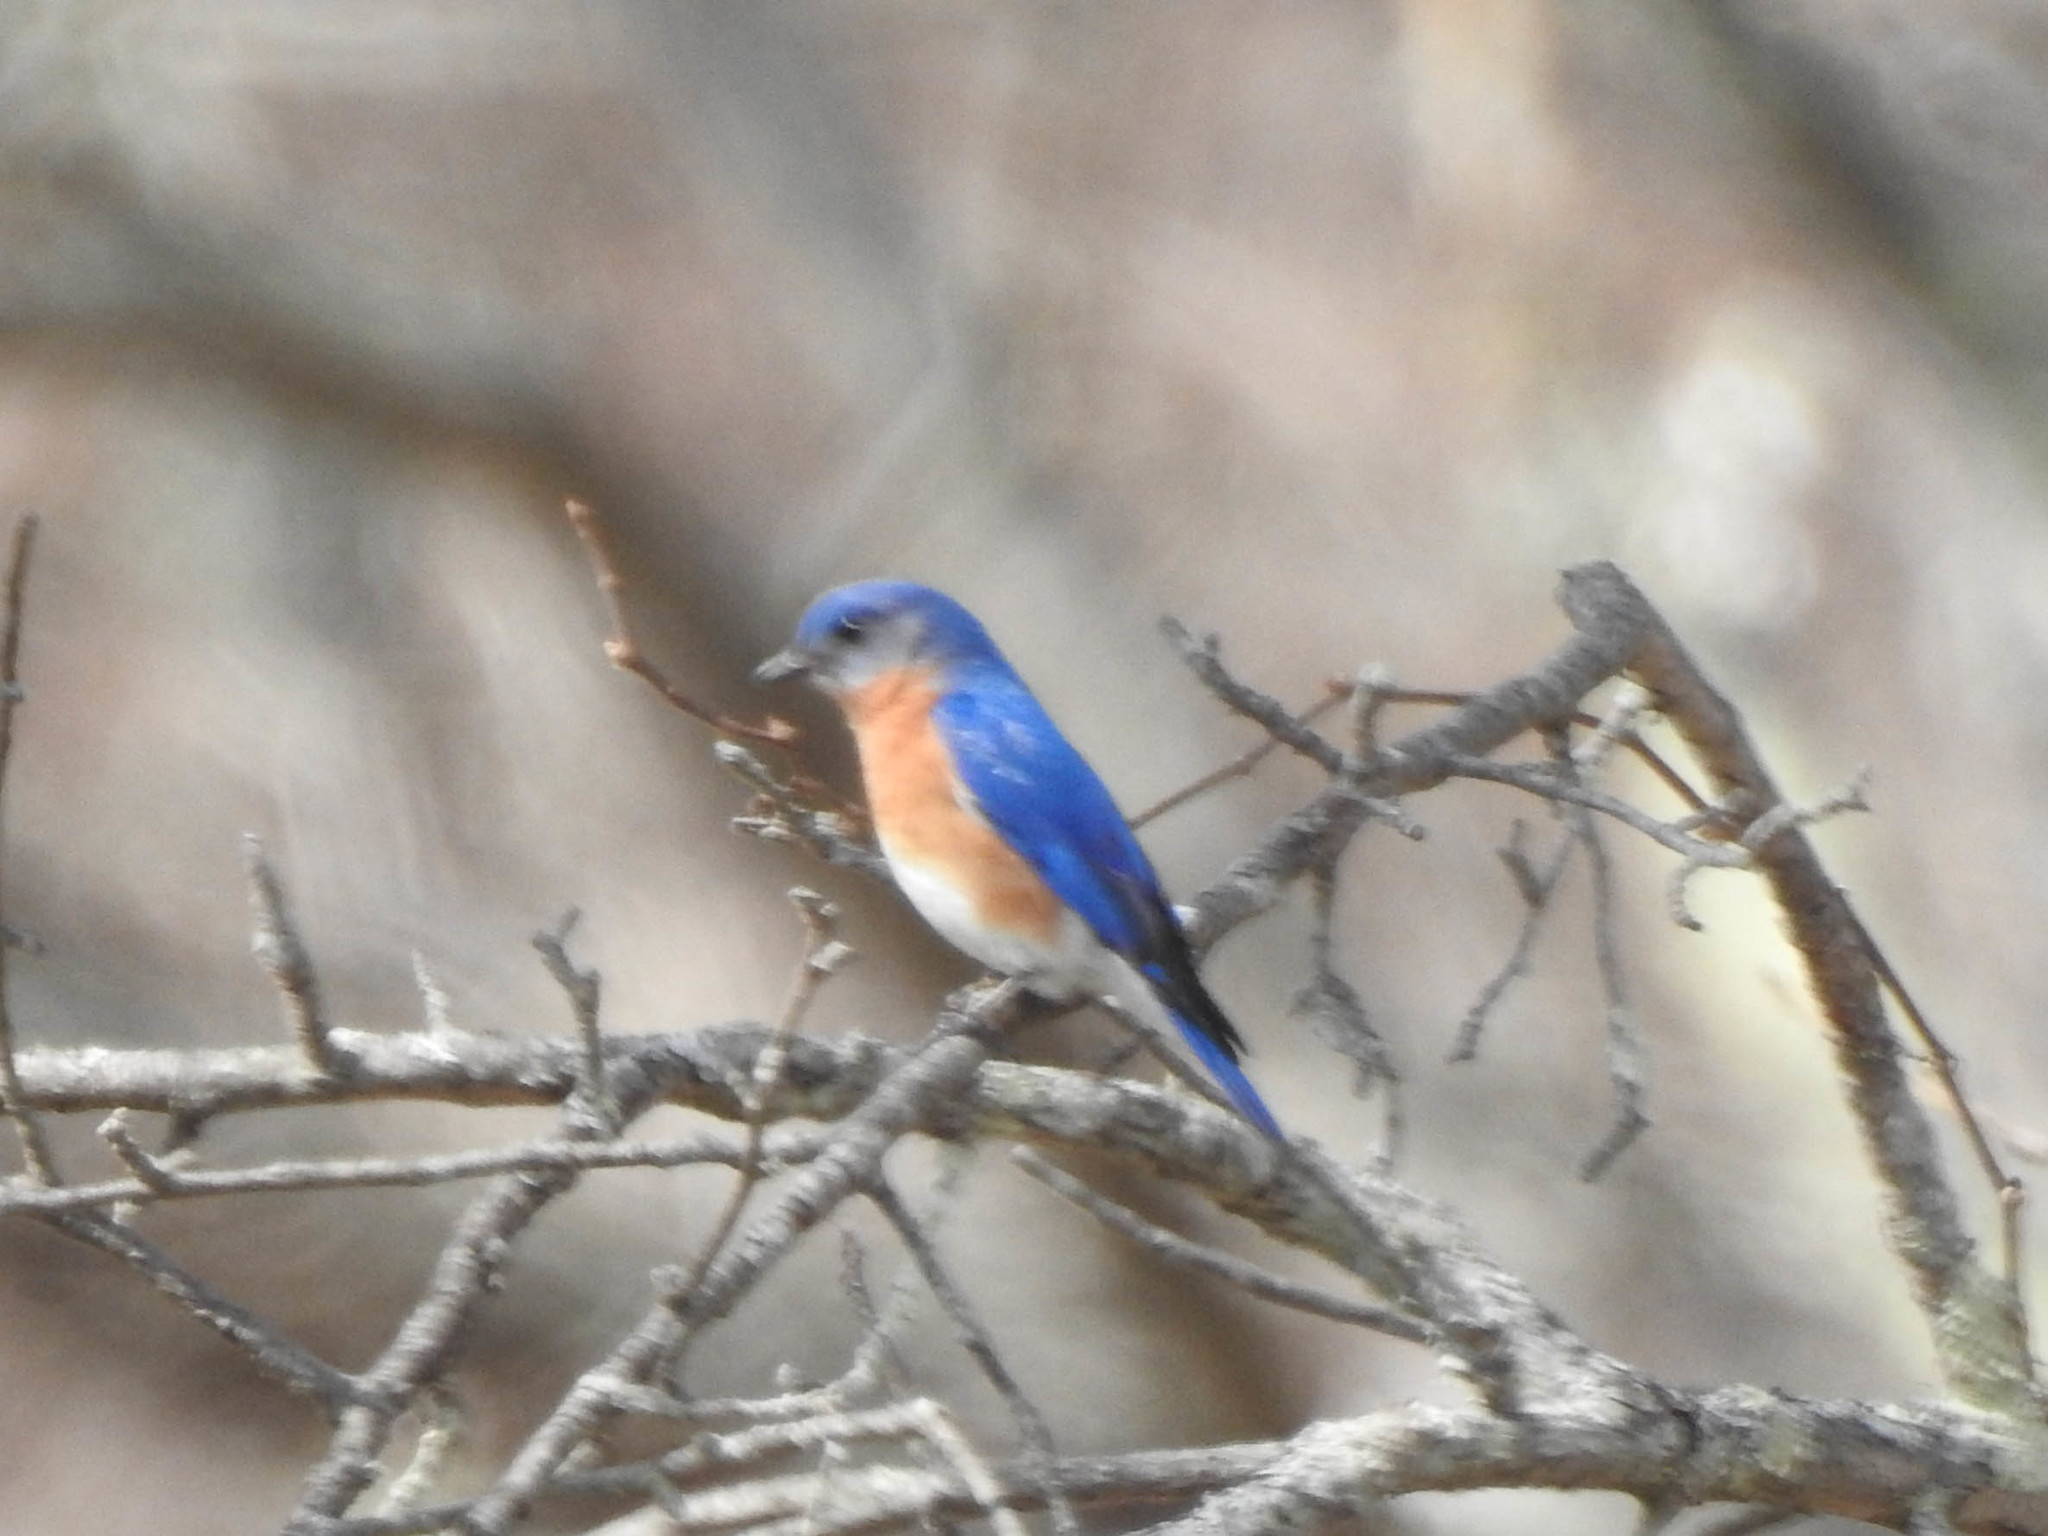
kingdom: Animalia
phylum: Chordata
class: Aves
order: Passeriformes
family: Turdidae
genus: Sialia
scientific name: Sialia sialis
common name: Eastern bluebird
